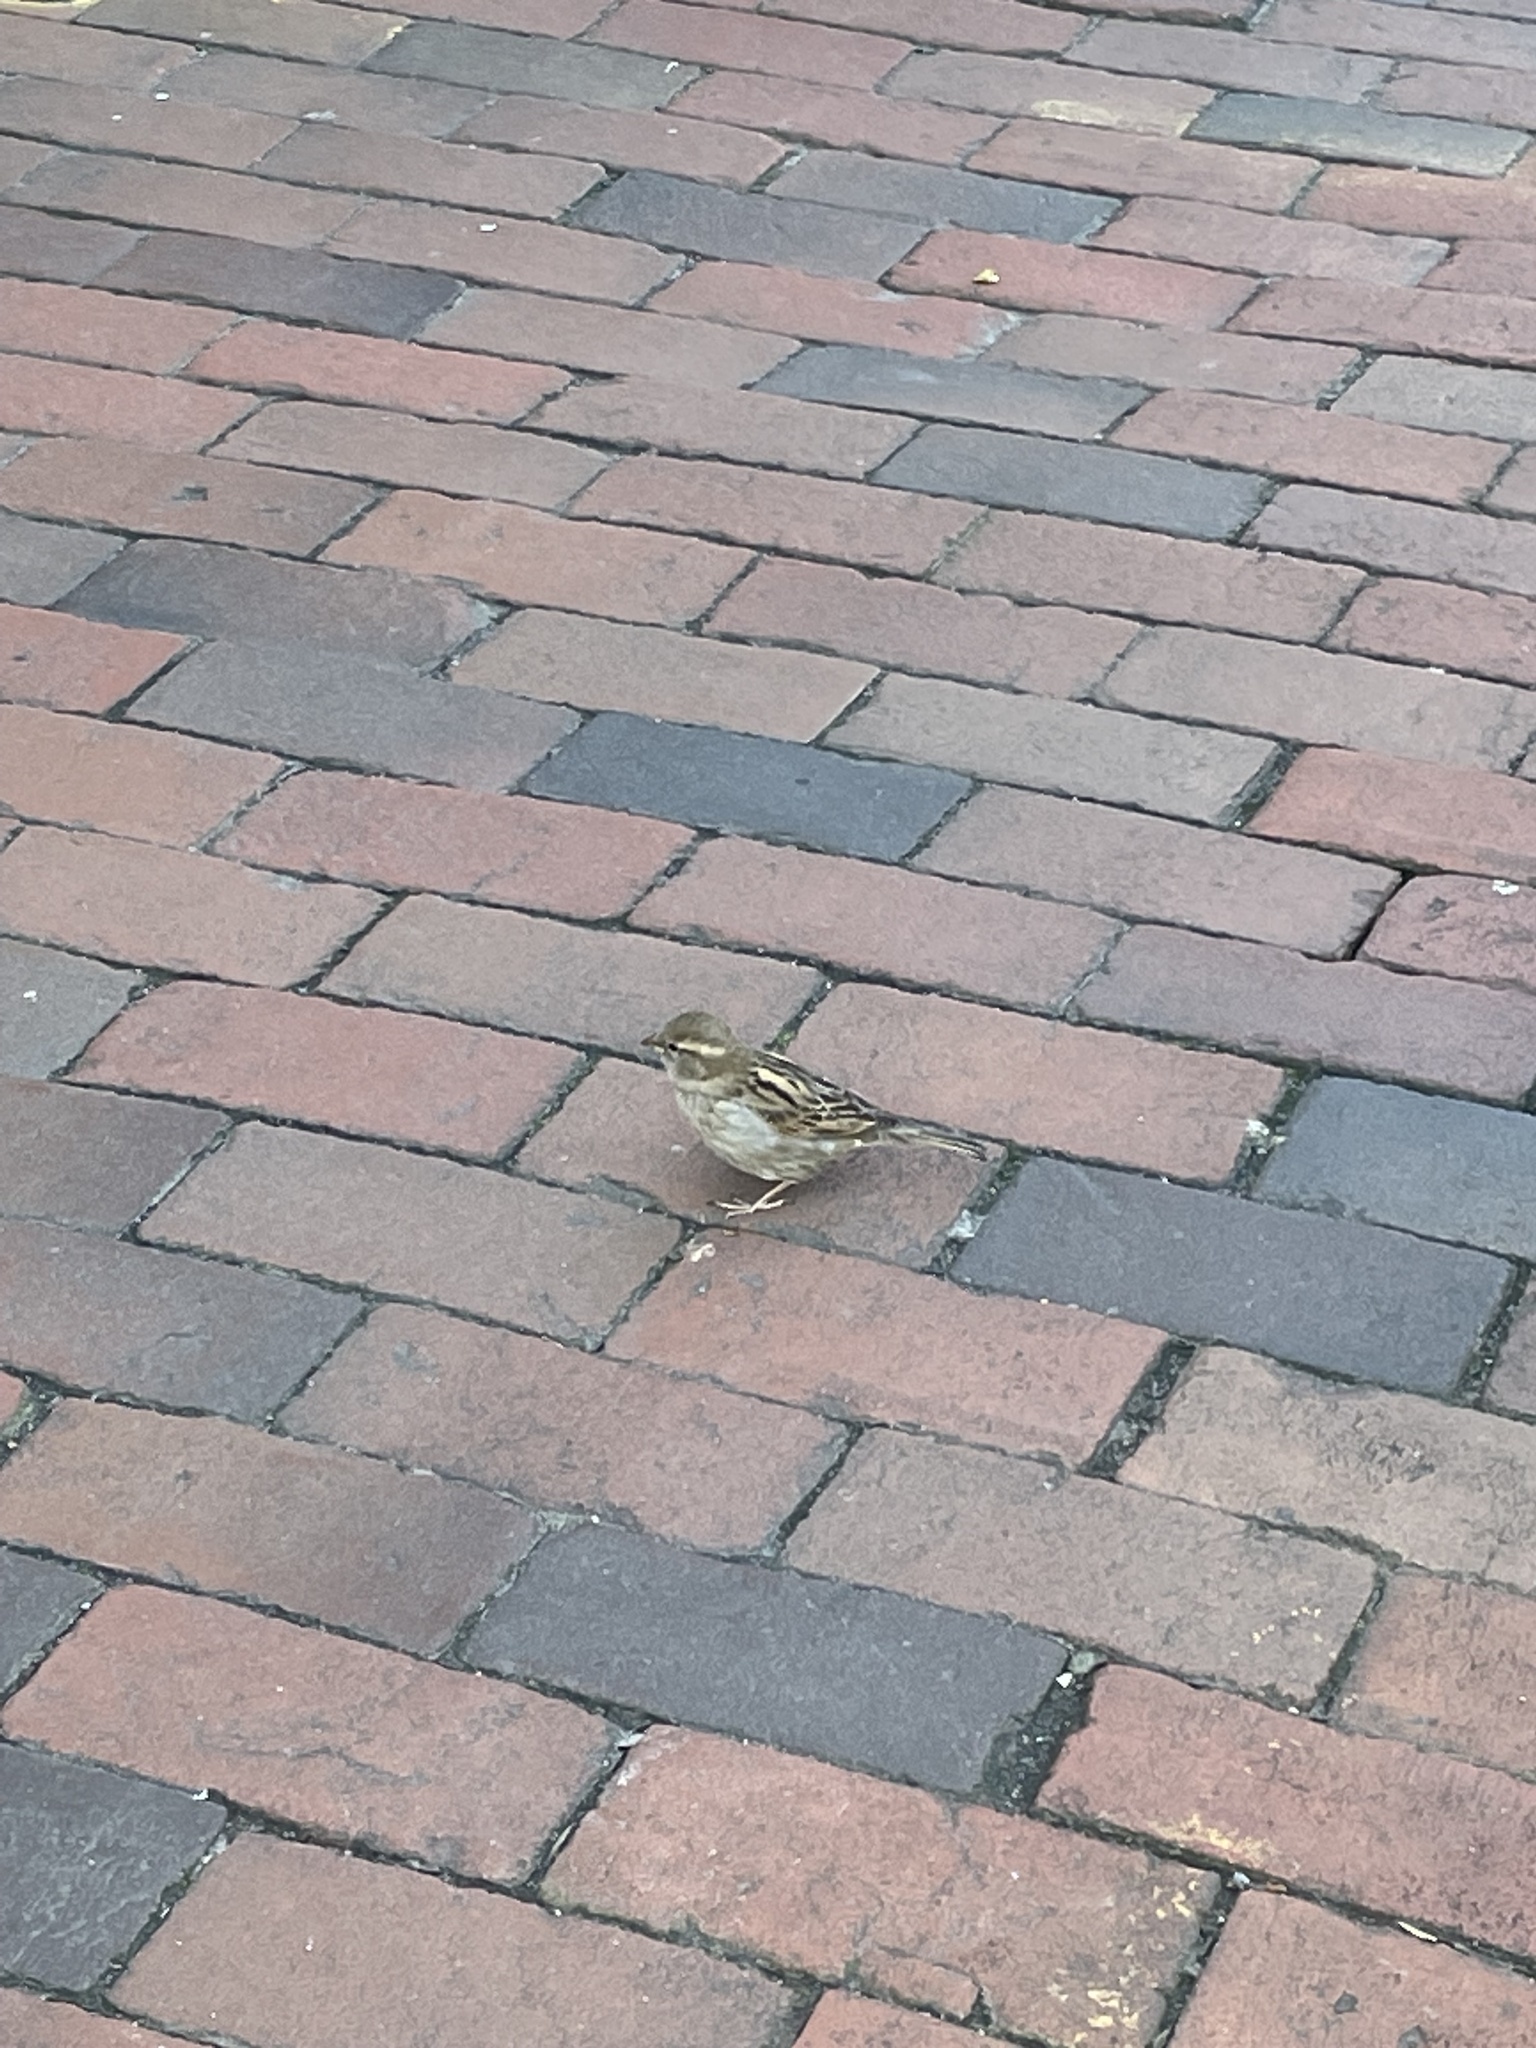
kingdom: Animalia
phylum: Chordata
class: Aves
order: Passeriformes
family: Passeridae
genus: Passer
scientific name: Passer domesticus
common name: House sparrow
